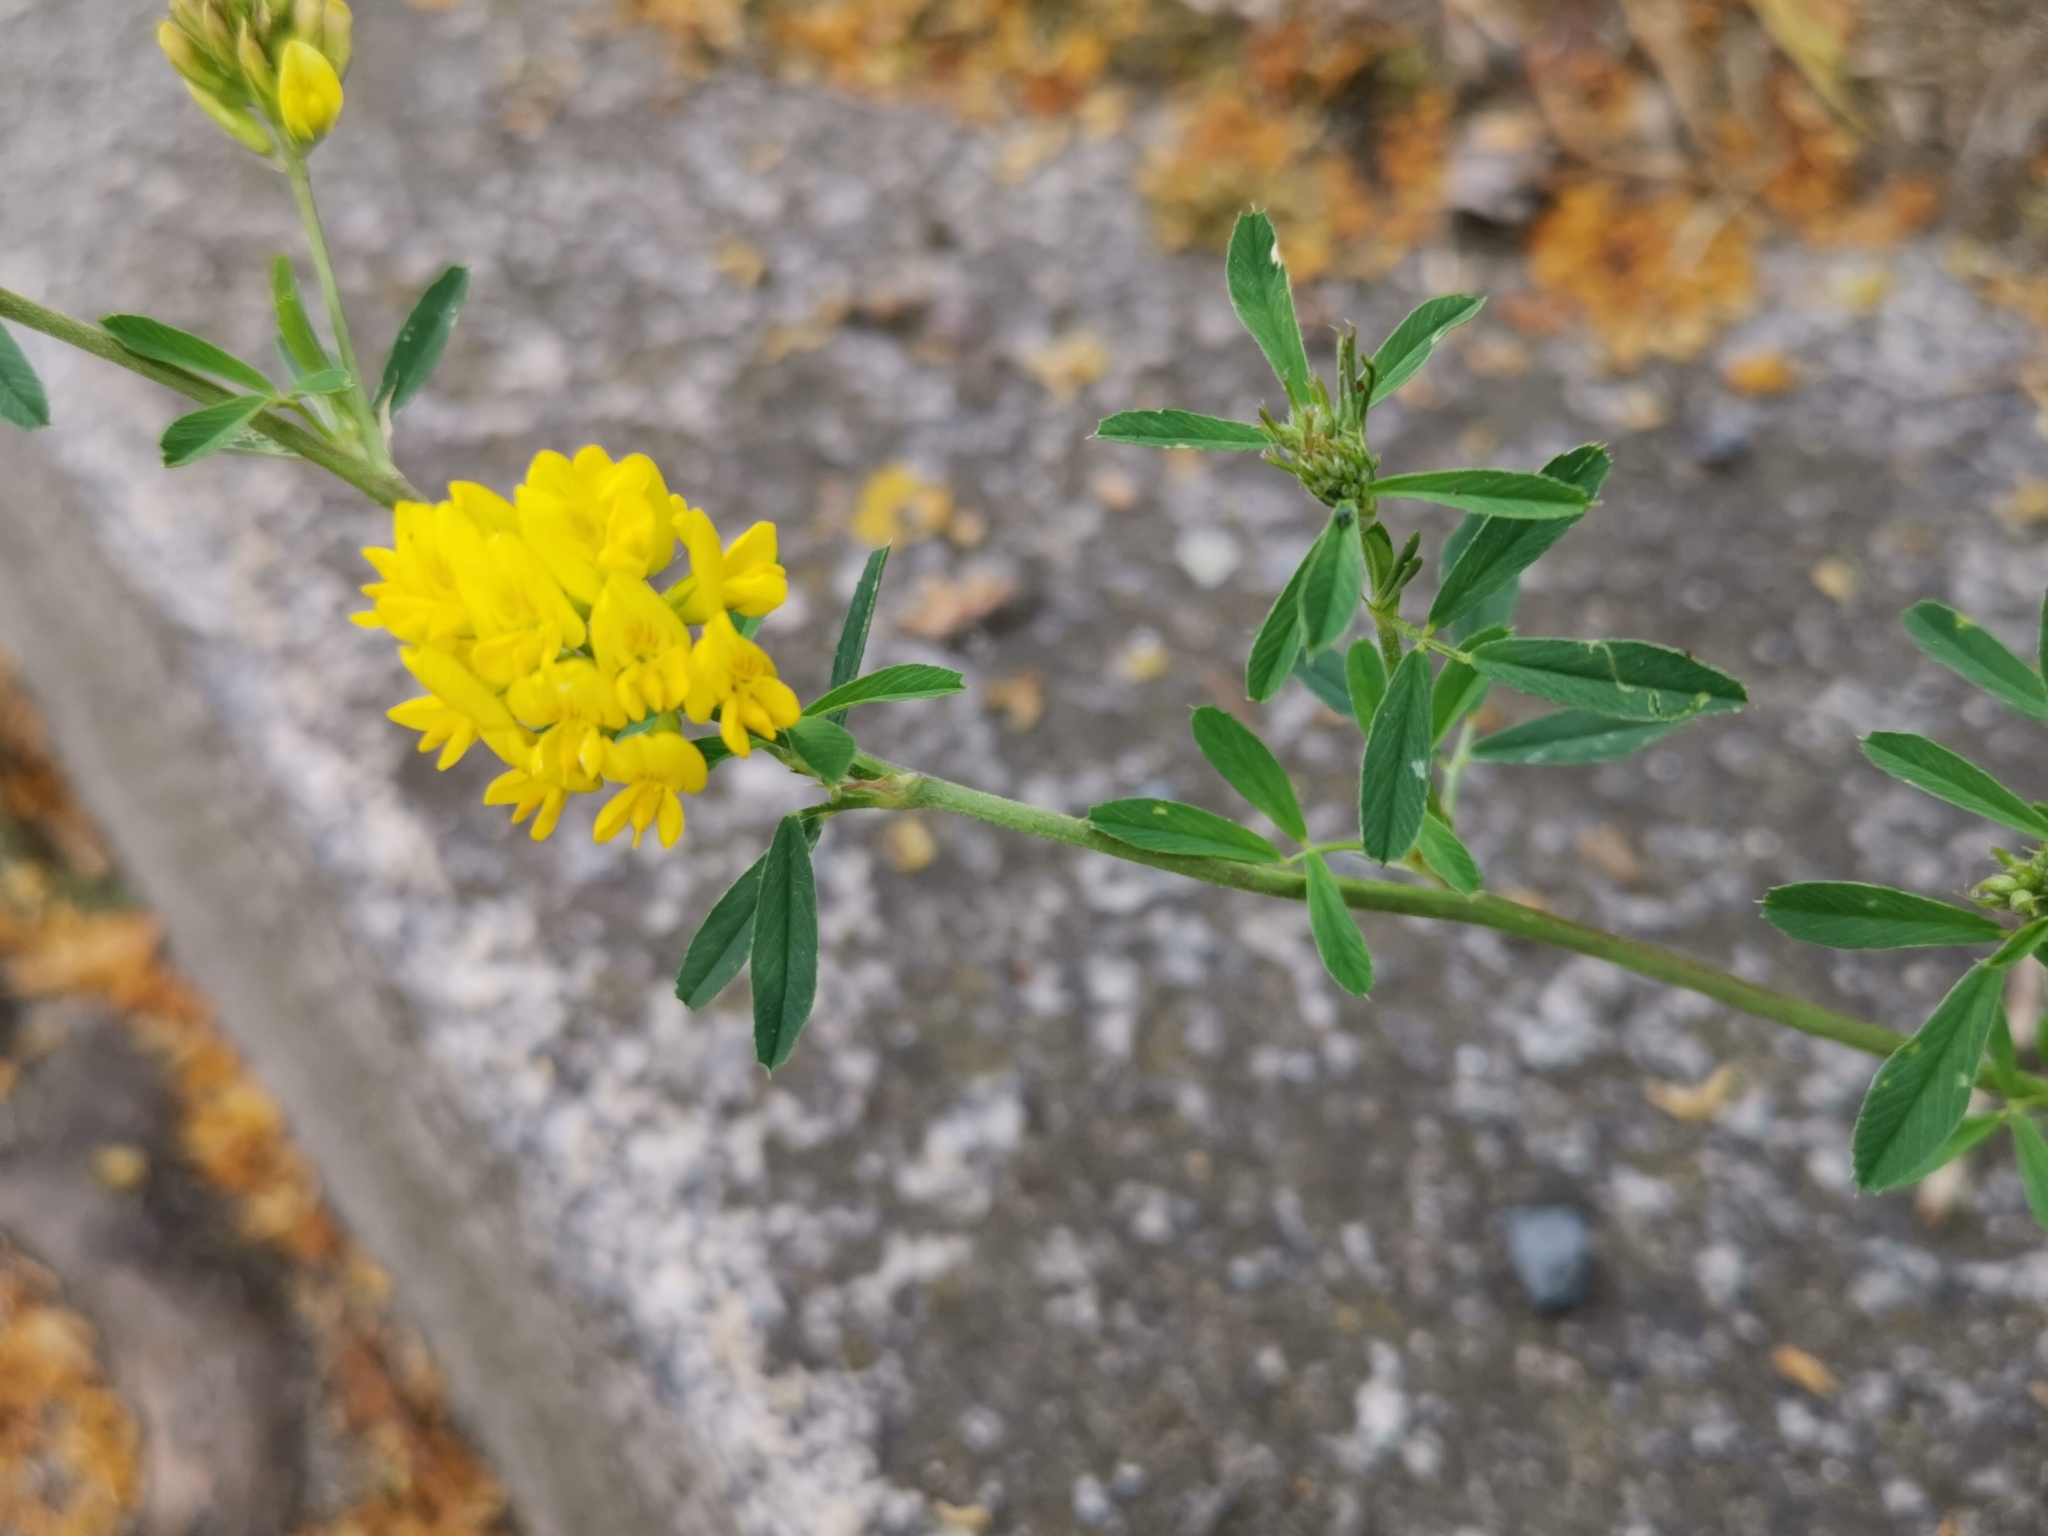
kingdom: Plantae
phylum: Tracheophyta
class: Magnoliopsida
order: Fabales
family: Fabaceae
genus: Medicago
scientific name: Medicago falcata
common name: Sickle medick
